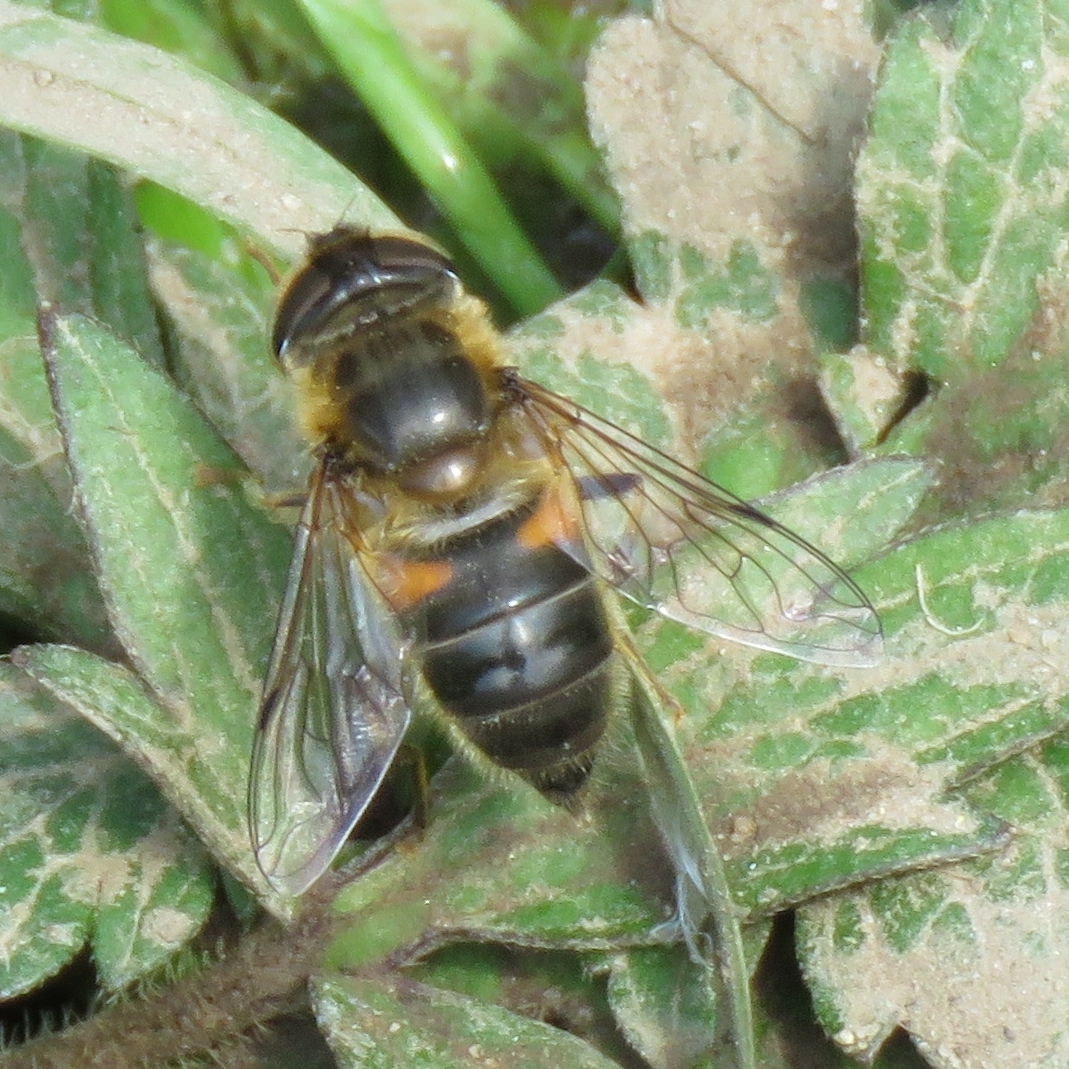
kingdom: Animalia
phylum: Arthropoda
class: Insecta
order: Diptera
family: Syrphidae
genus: Eristalis
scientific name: Eristalis pertinax
